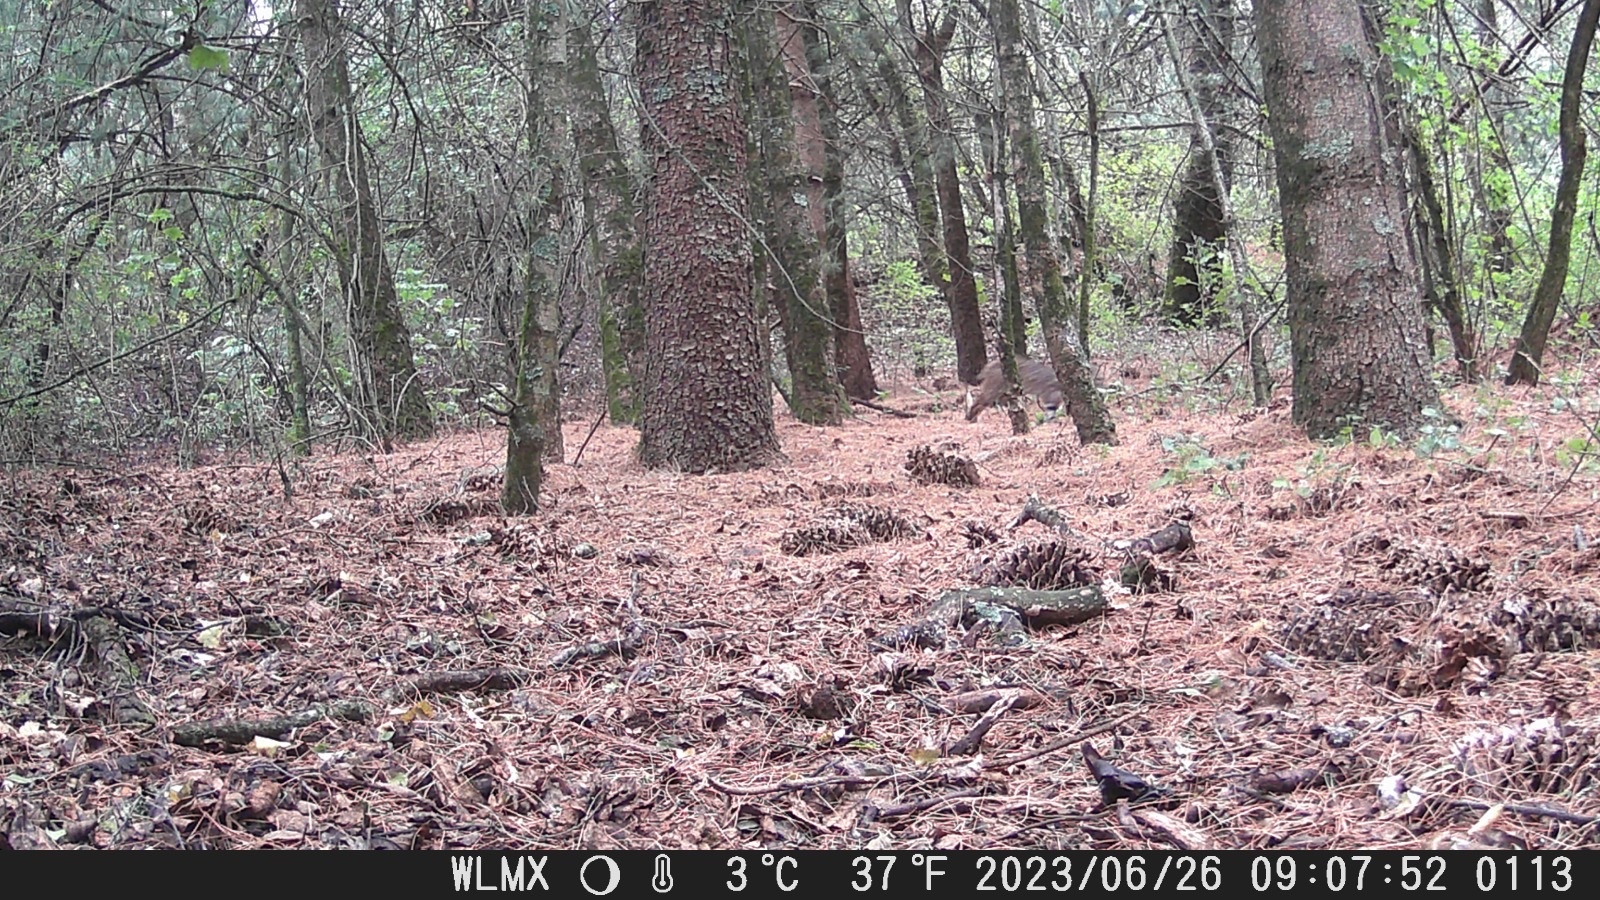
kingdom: Animalia
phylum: Chordata
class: Mammalia
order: Carnivora
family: Felidae
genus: Lynx
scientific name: Lynx rufus
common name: Bobcat
